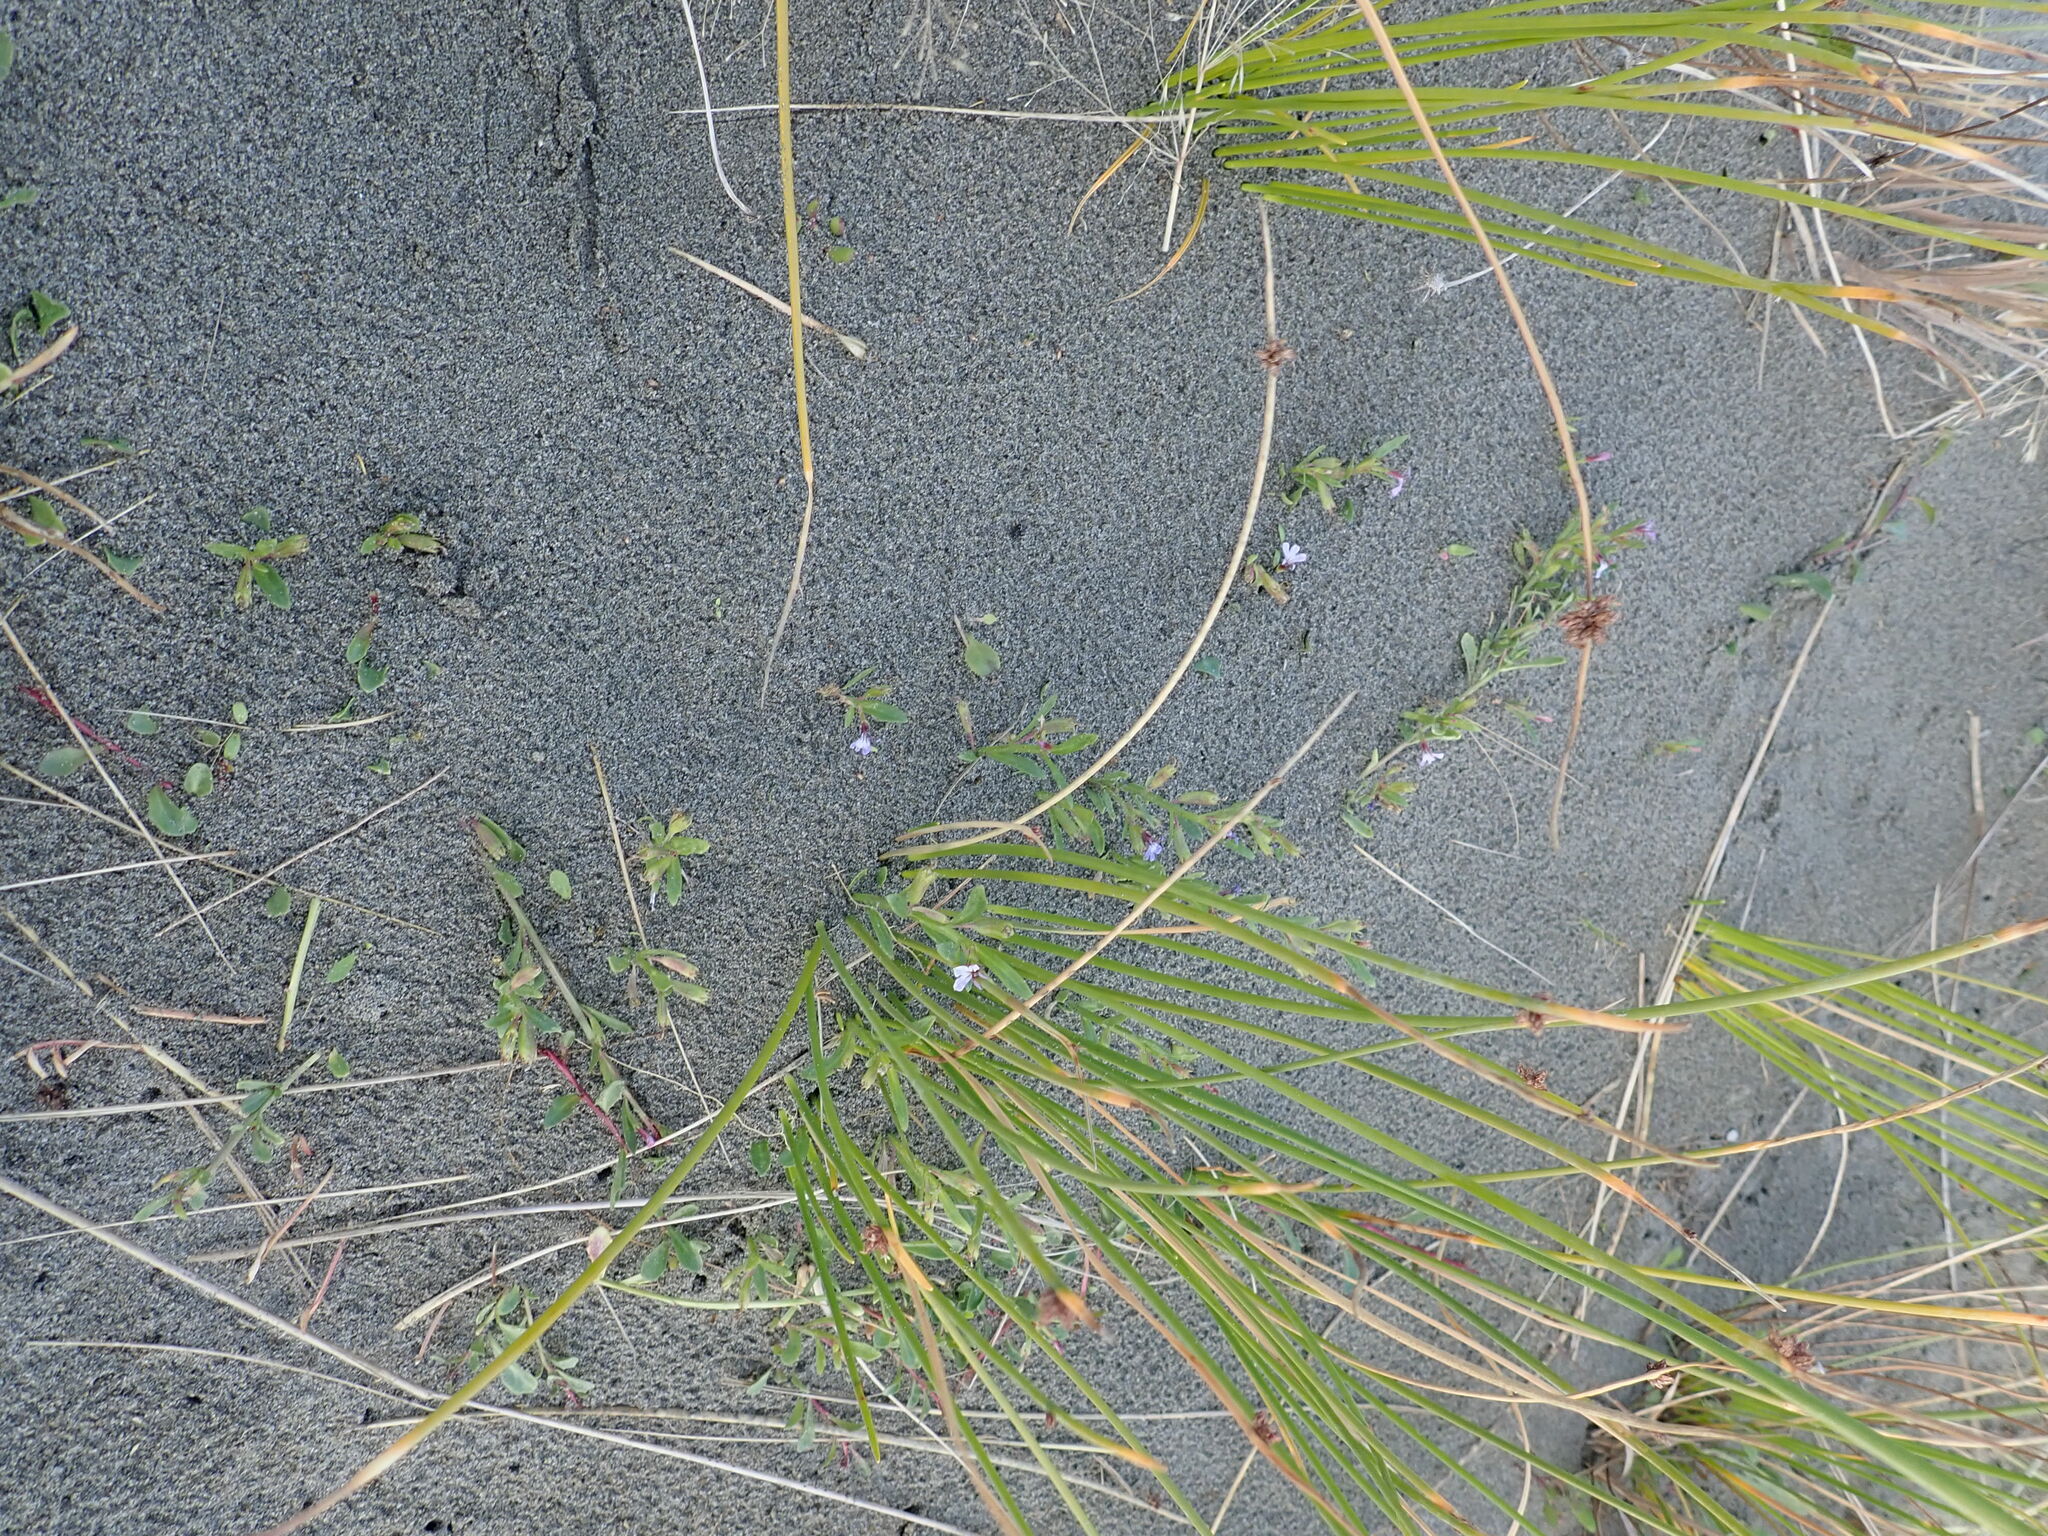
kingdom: Plantae
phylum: Tracheophyta
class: Magnoliopsida
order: Asterales
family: Campanulaceae
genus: Lobelia
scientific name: Lobelia anceps
